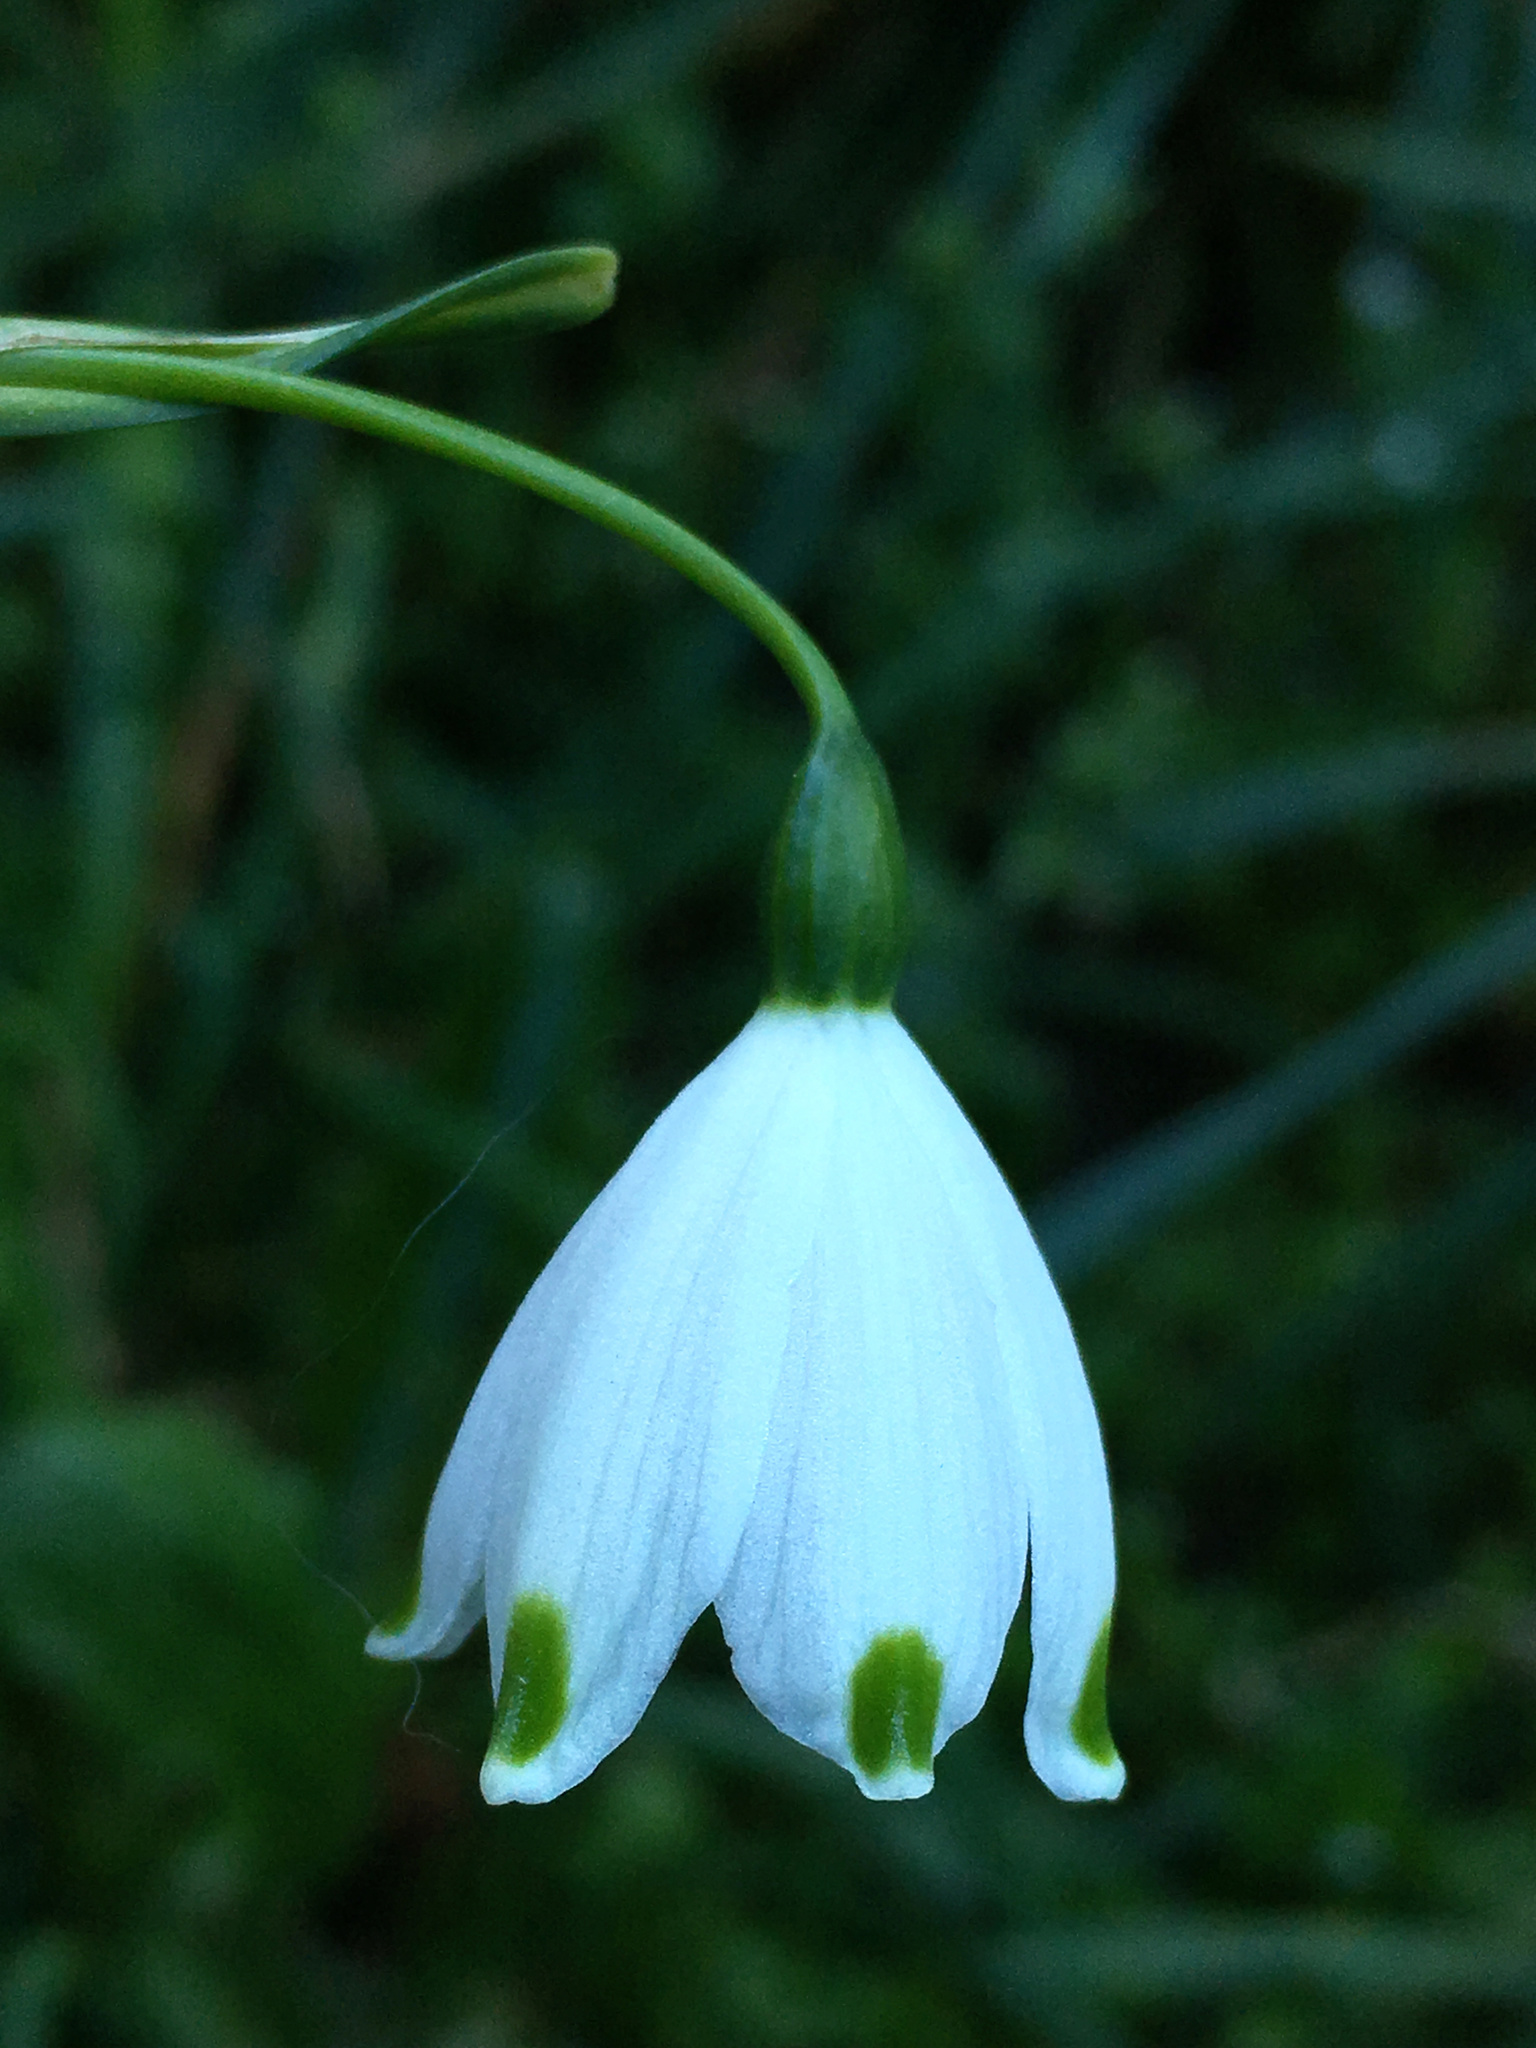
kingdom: Plantae
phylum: Tracheophyta
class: Liliopsida
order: Asparagales
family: Amaryllidaceae
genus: Leucojum
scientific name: Leucojum aestivum
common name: Summer snowflake
